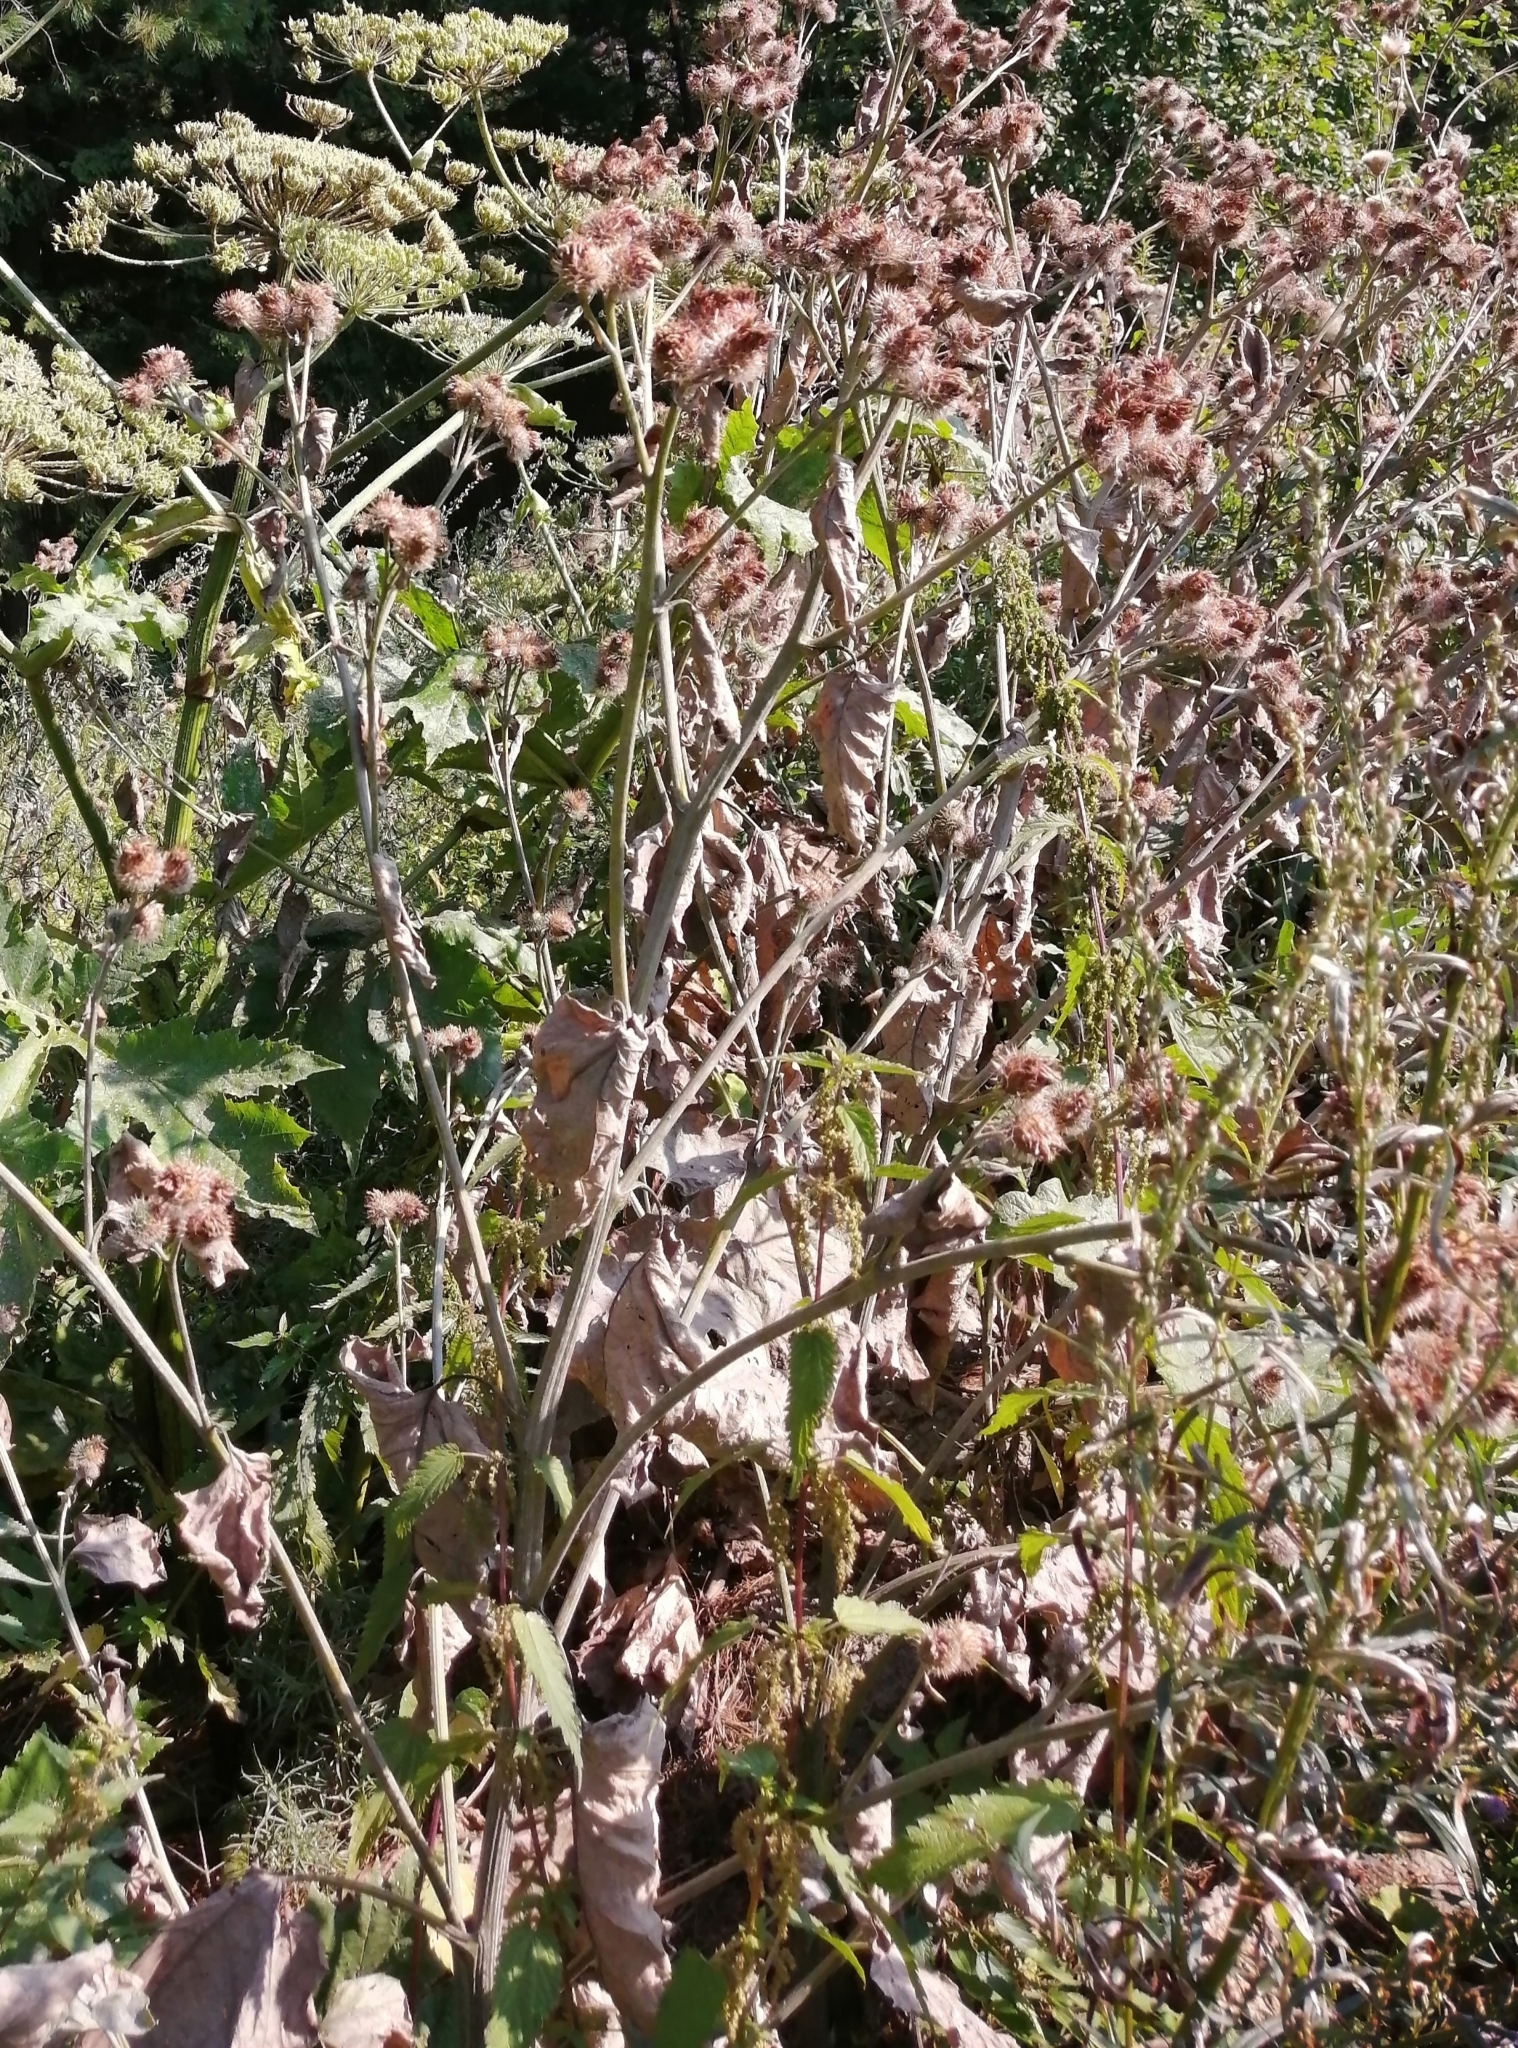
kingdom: Plantae
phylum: Tracheophyta
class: Magnoliopsida
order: Asterales
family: Asteraceae
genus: Arctium
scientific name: Arctium tomentosum
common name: Woolly burdock
